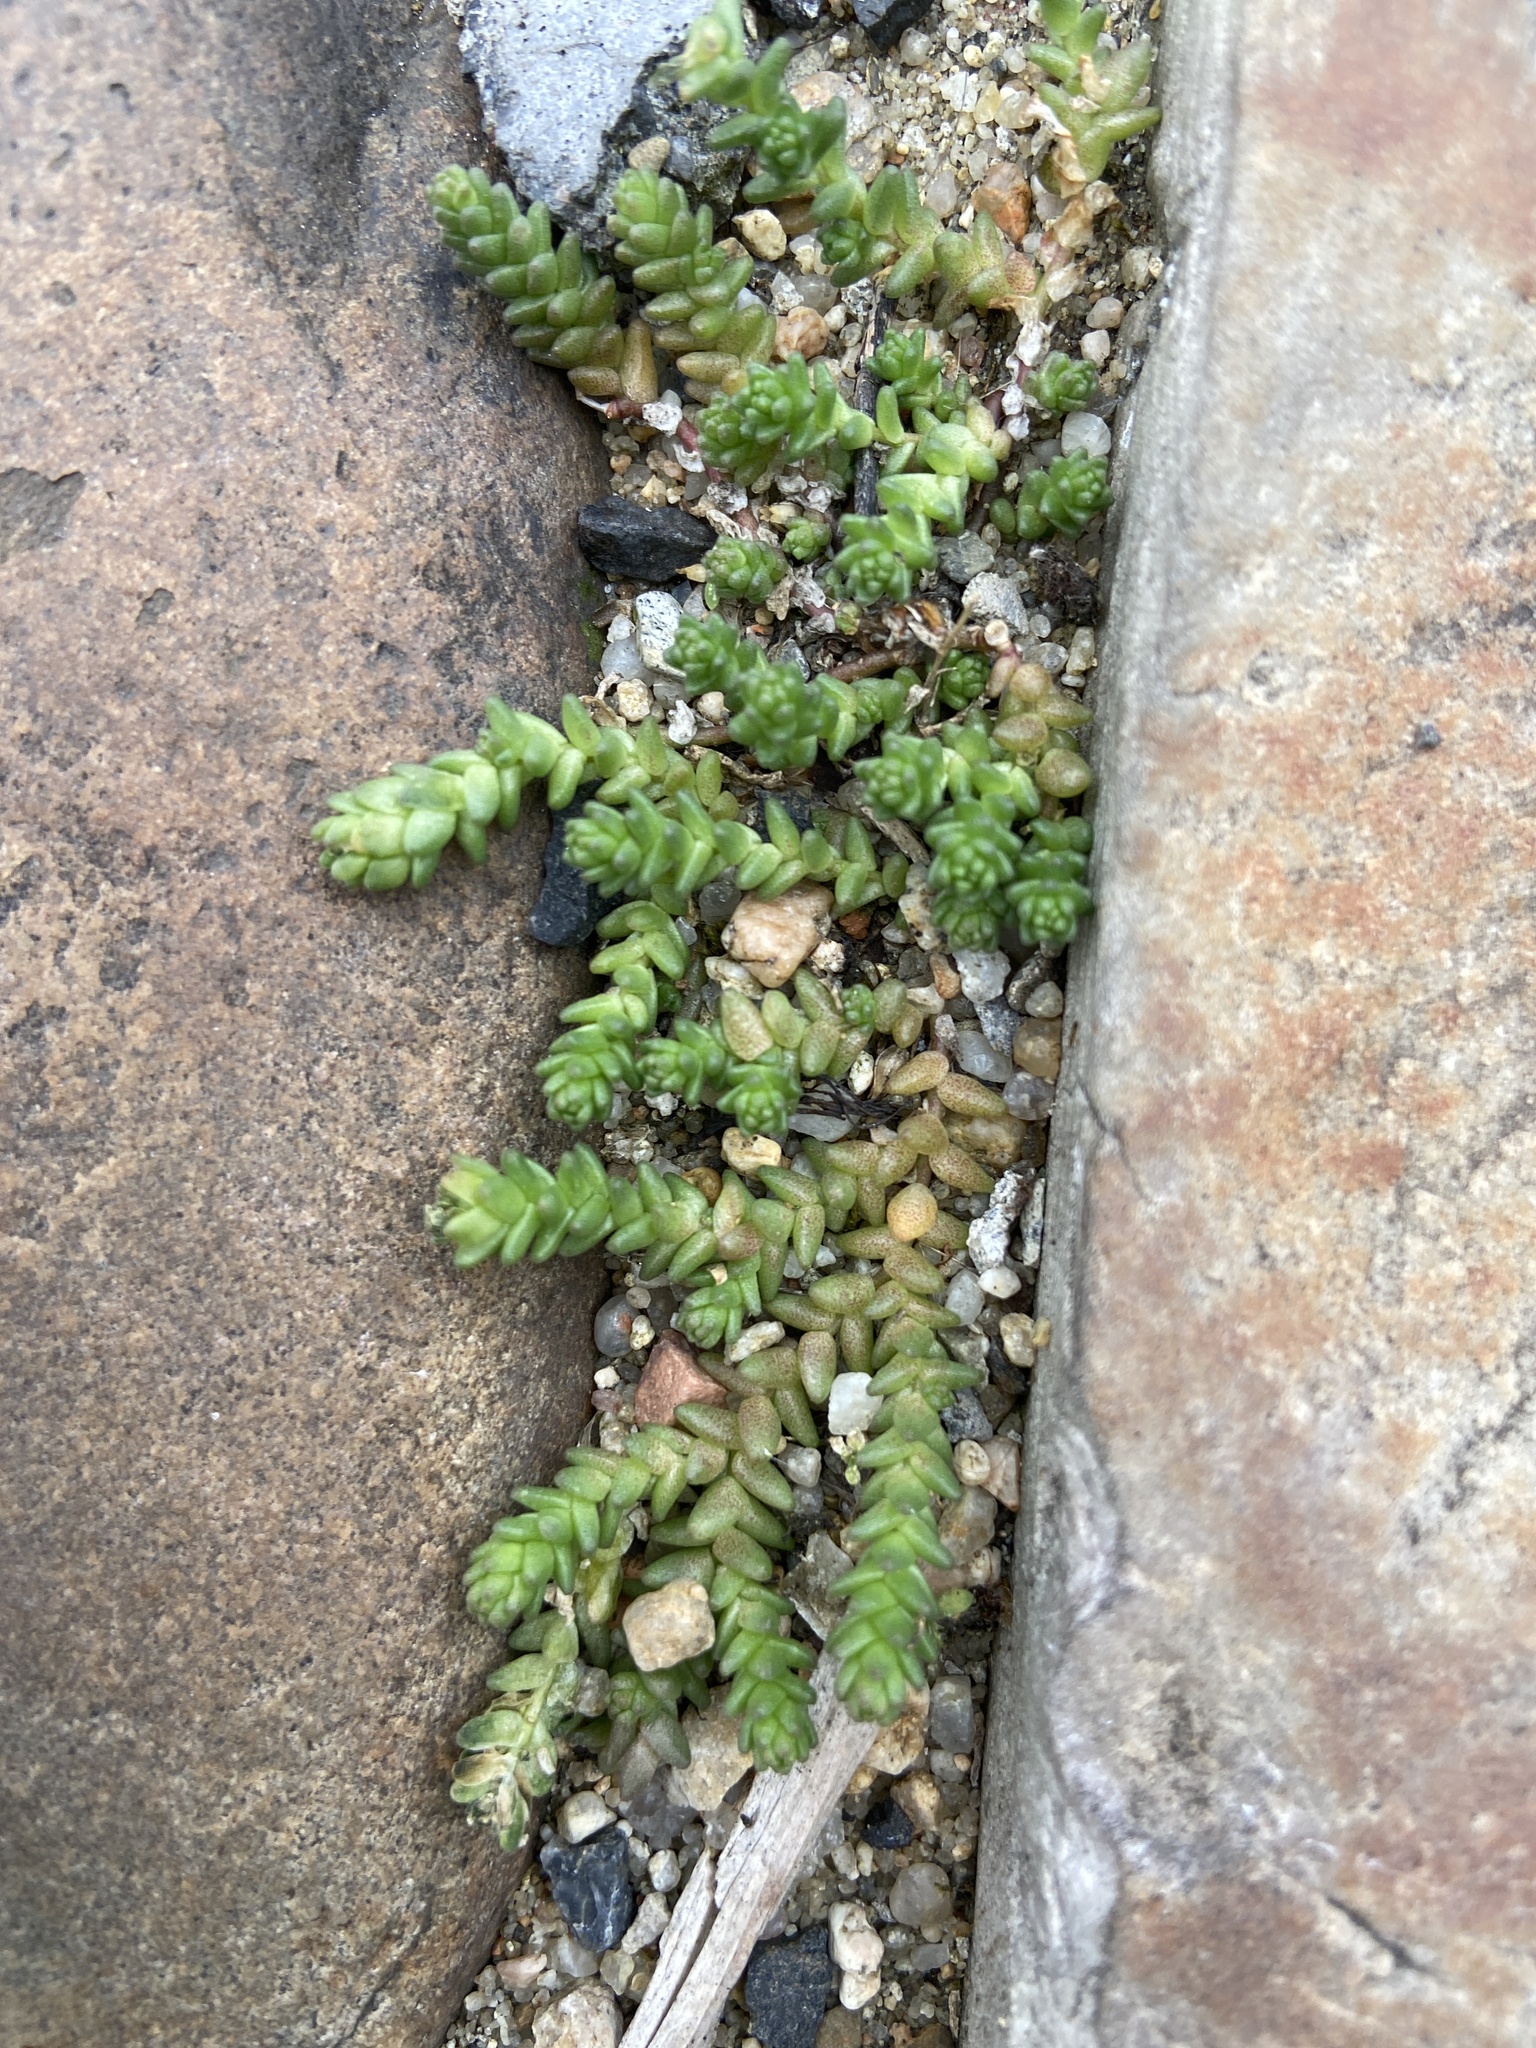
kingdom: Plantae
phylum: Tracheophyta
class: Magnoliopsida
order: Saxifragales
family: Crassulaceae
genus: Sedum
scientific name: Sedum acre
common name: Biting stonecrop
